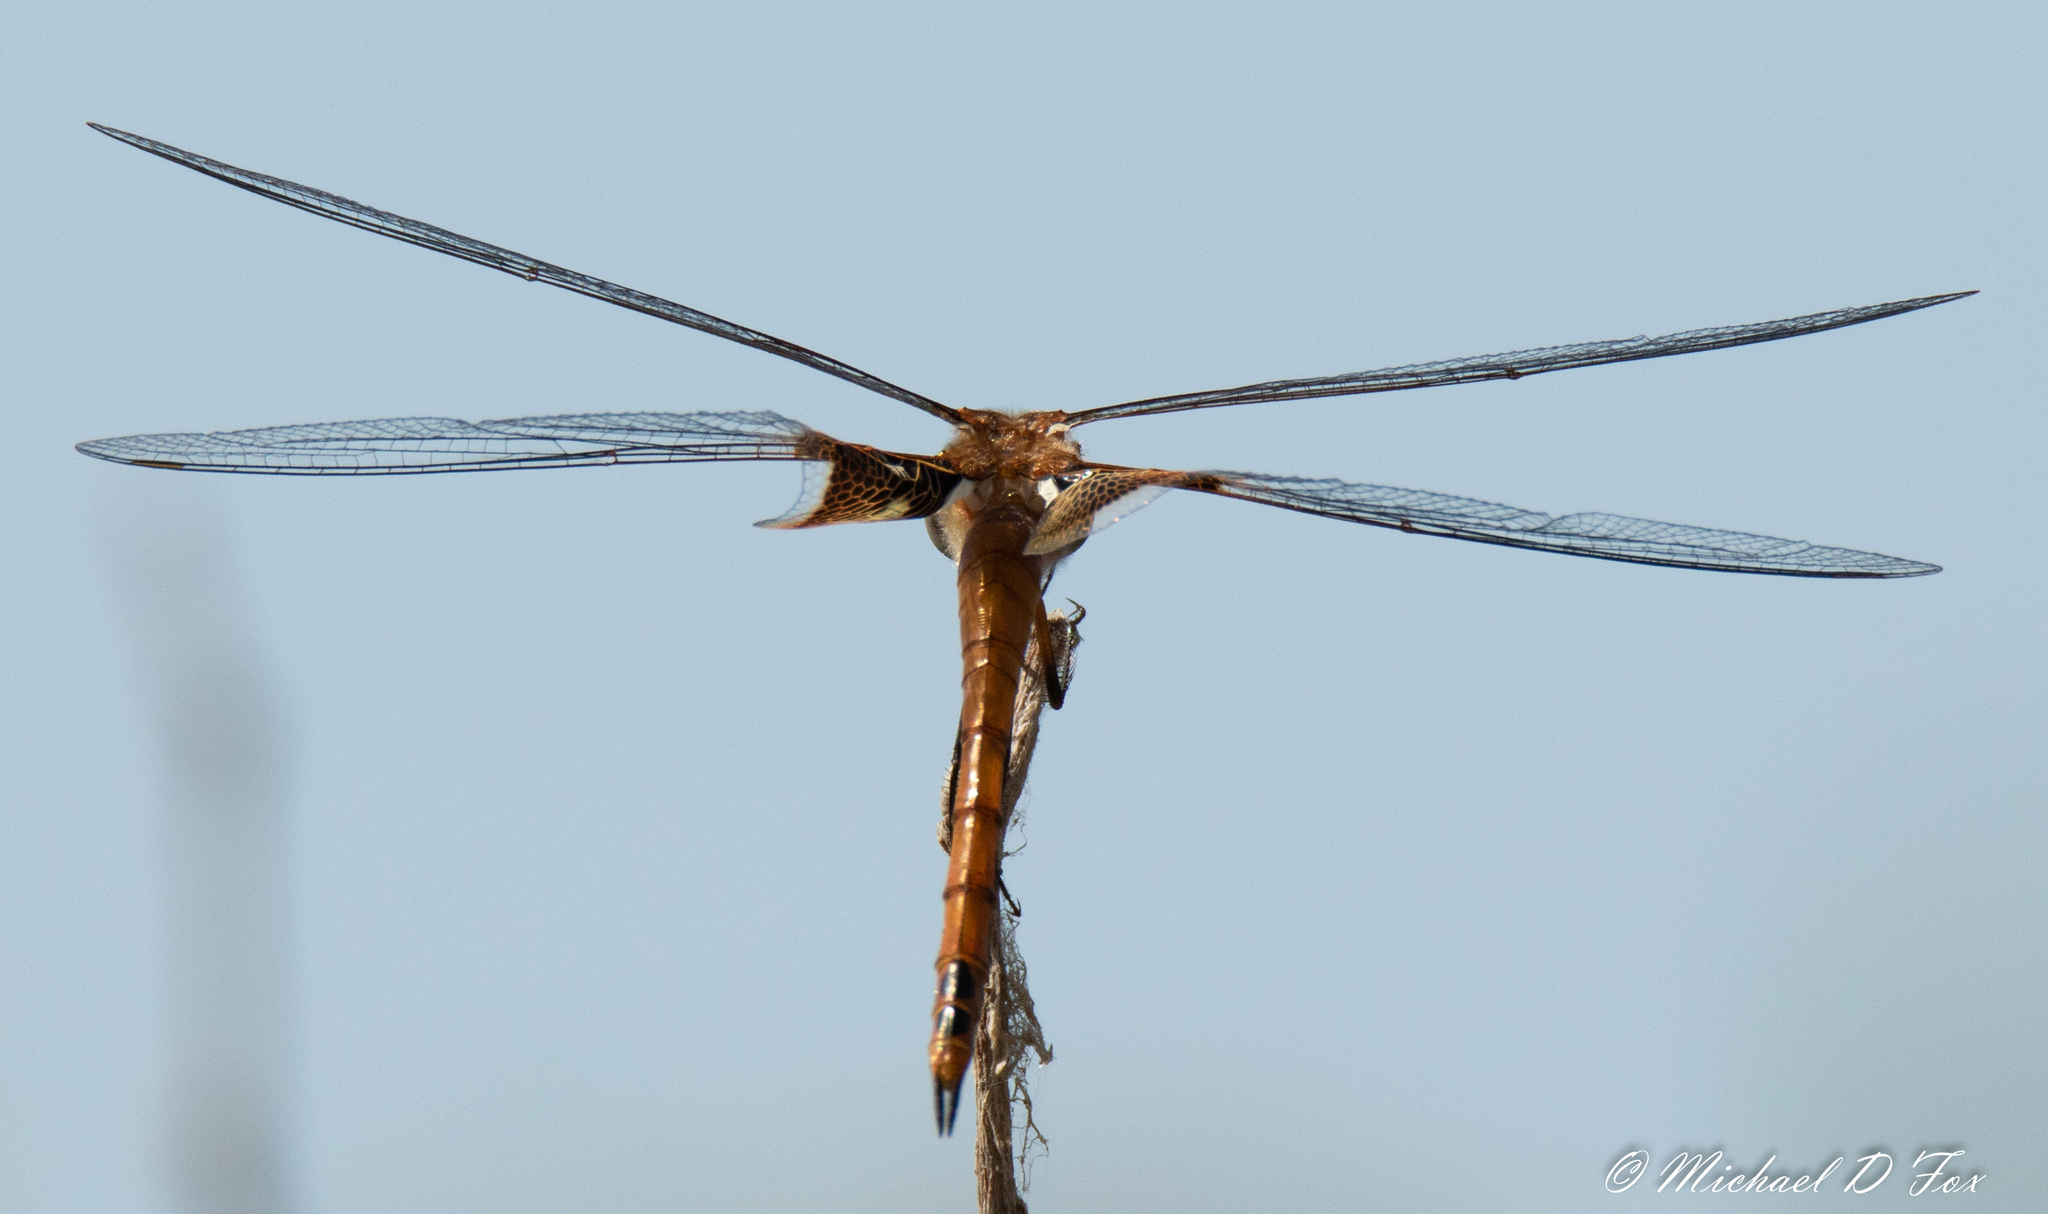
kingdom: Animalia
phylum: Arthropoda
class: Insecta
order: Odonata
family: Libellulidae
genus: Tramea
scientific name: Tramea onusta
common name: Red saddlebags
